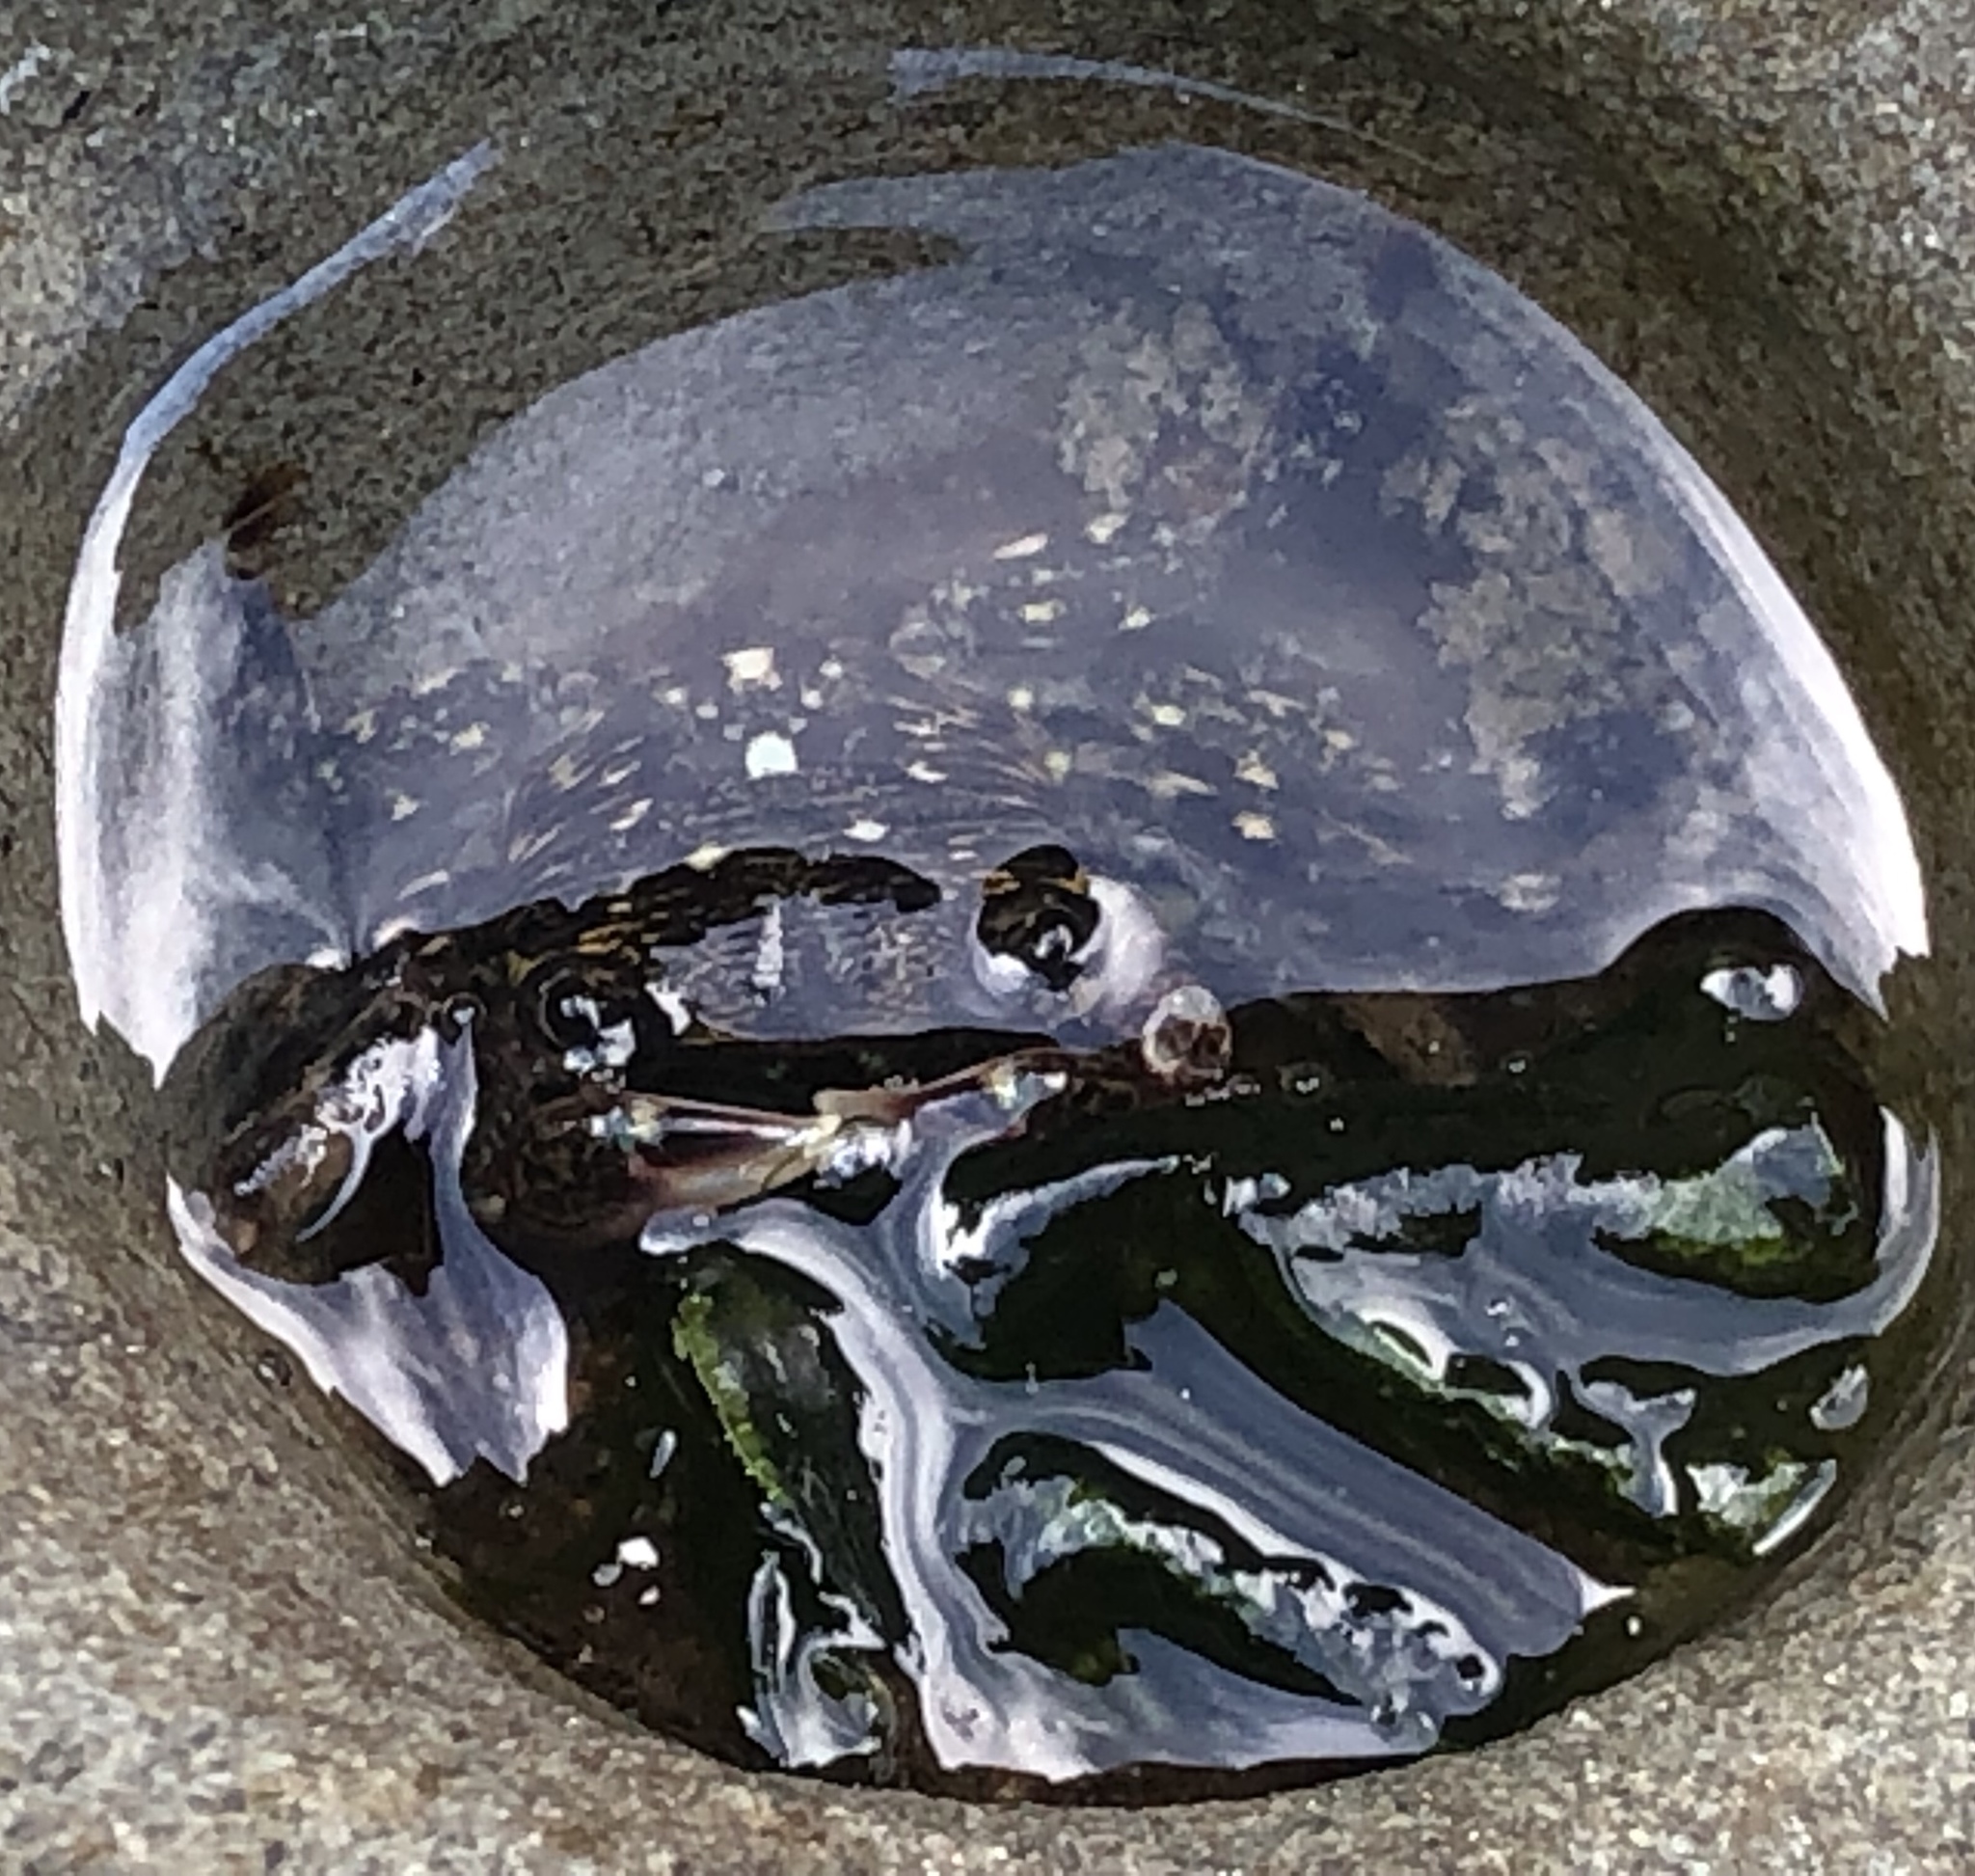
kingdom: Animalia
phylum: Arthropoda
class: Malacostraca
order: Decapoda
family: Grapsidae
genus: Pachygrapsus
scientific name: Pachygrapsus crassipes
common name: Striped shore crab
